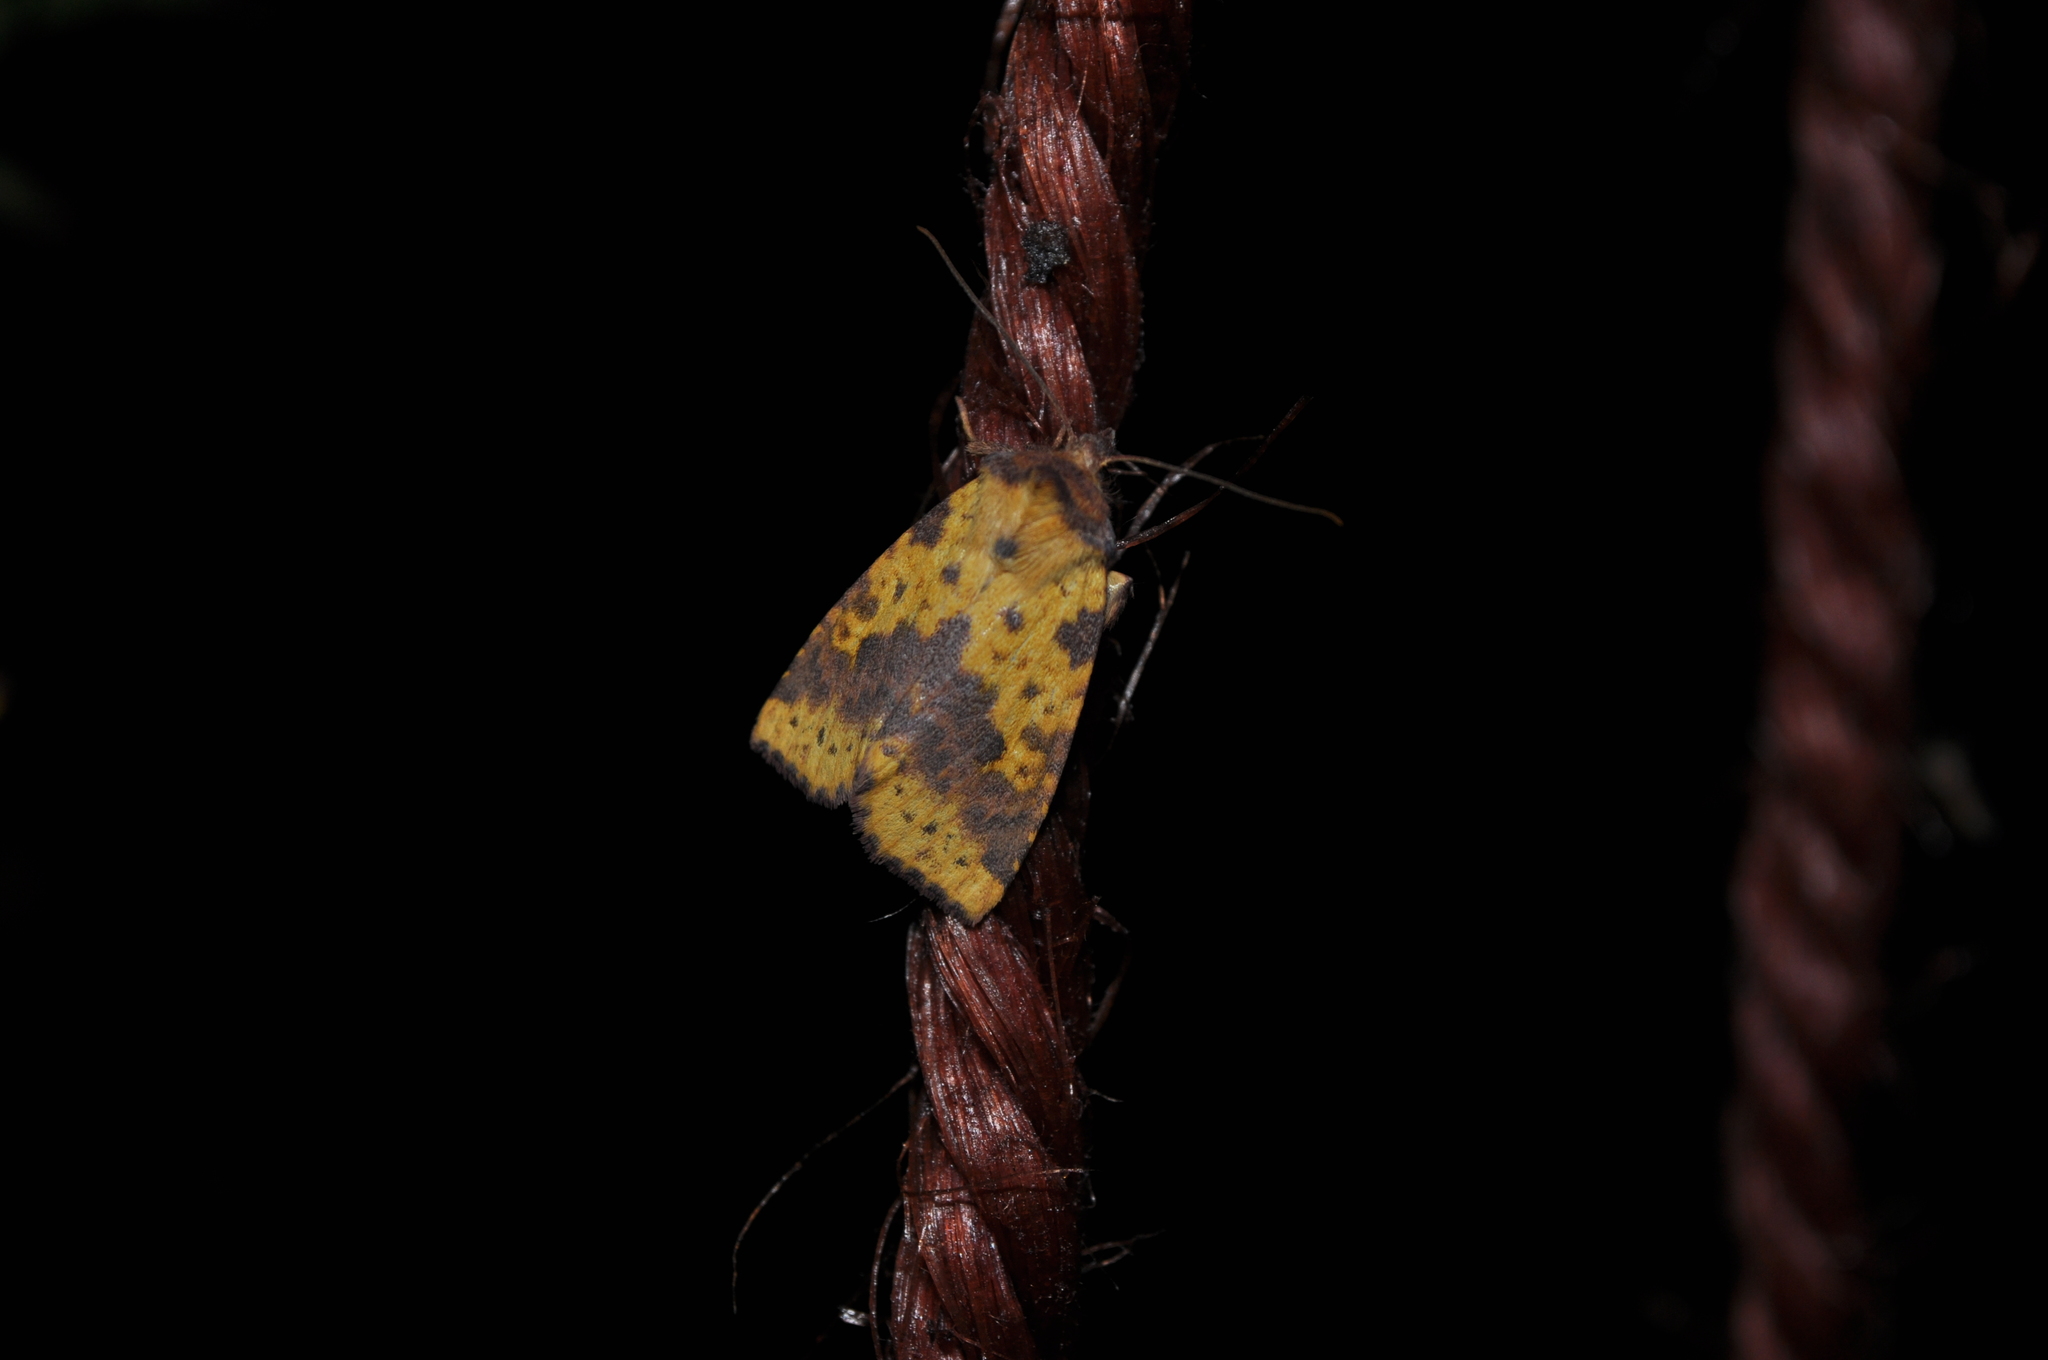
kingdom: Animalia
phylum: Arthropoda
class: Insecta
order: Lepidoptera
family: Noctuidae
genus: Xanthia
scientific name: Xanthia togata
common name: Pink-barred sallow
